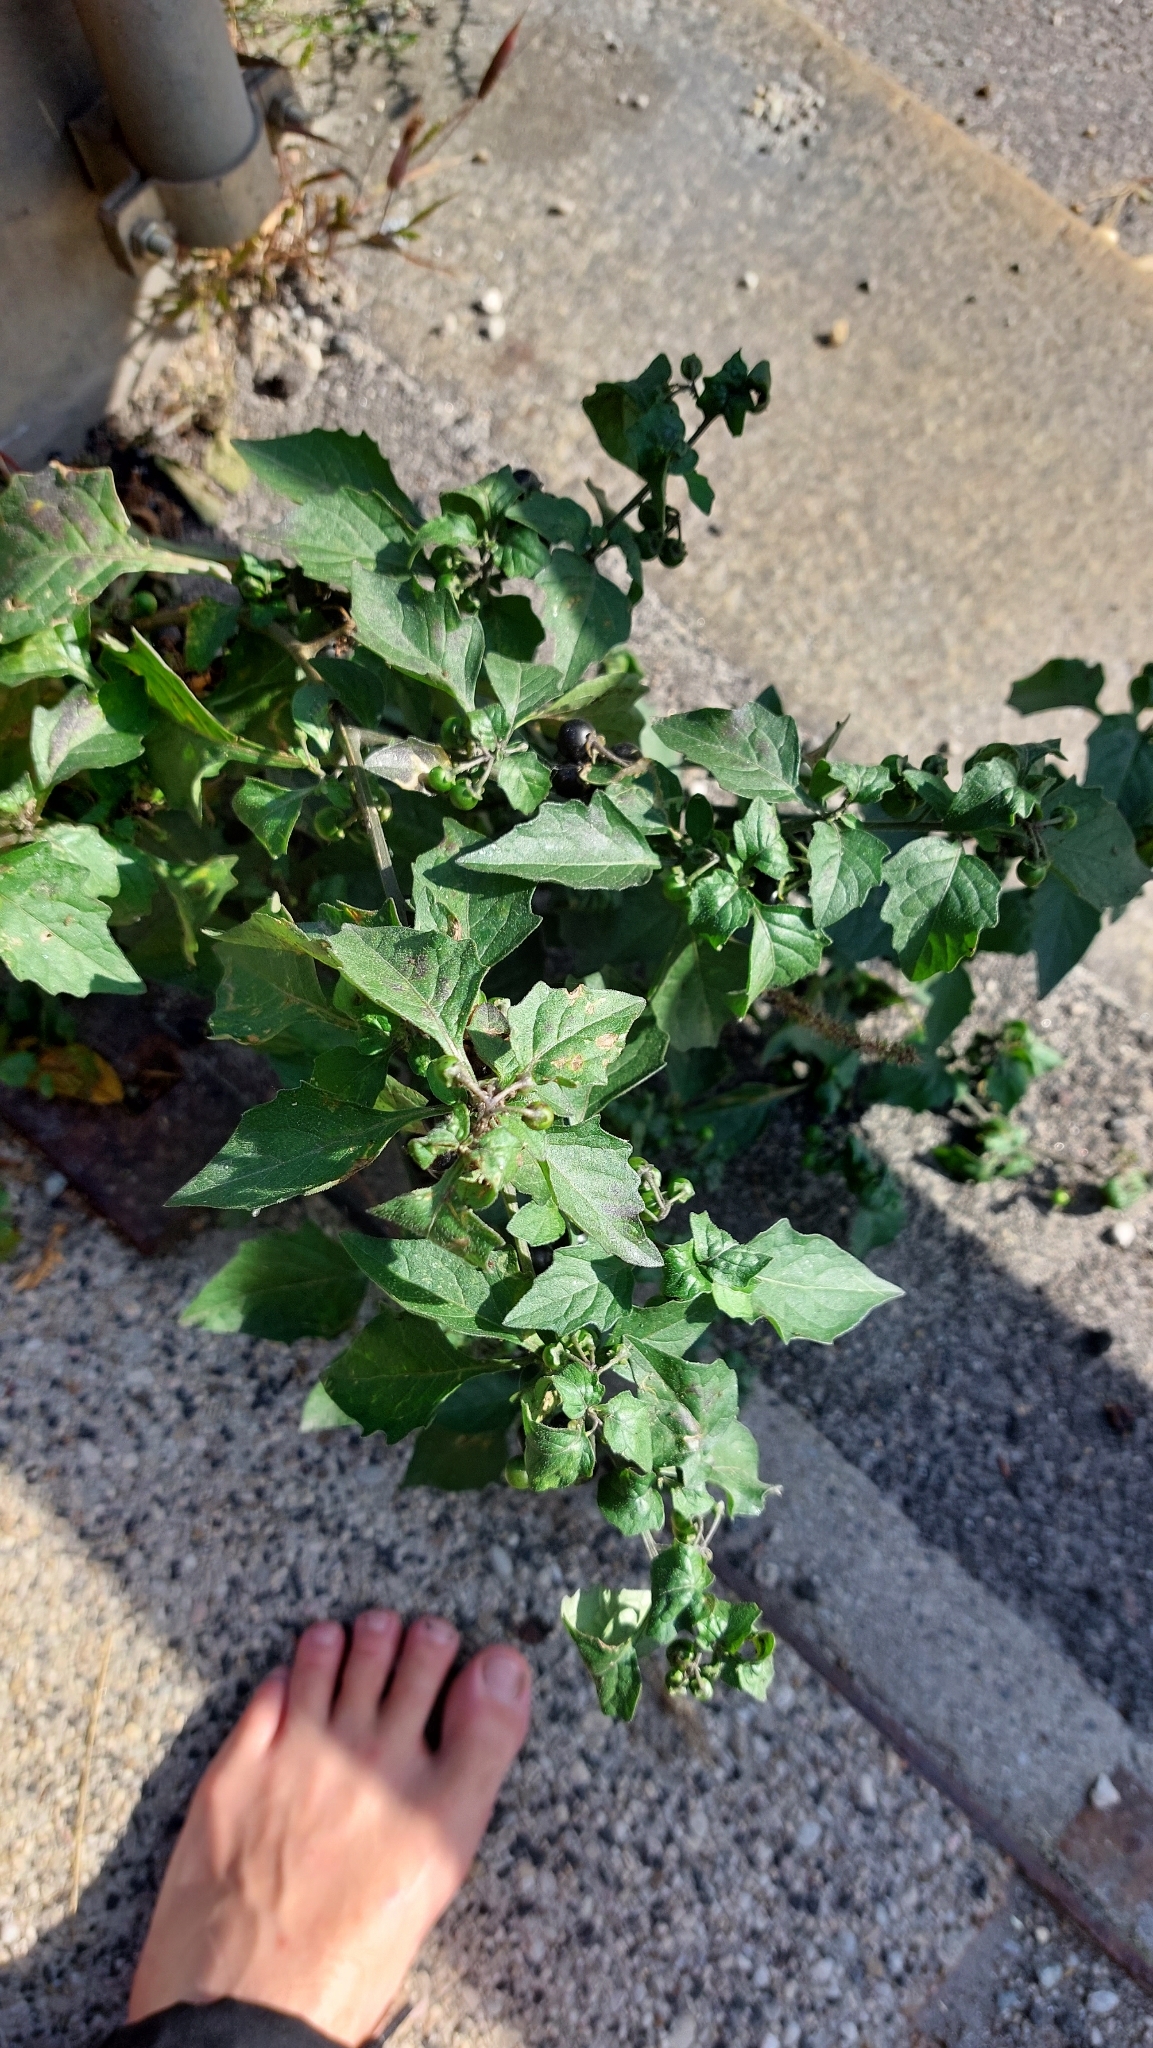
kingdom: Plantae
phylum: Tracheophyta
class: Magnoliopsida
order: Solanales
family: Solanaceae
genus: Solanum
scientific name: Solanum decipiens
